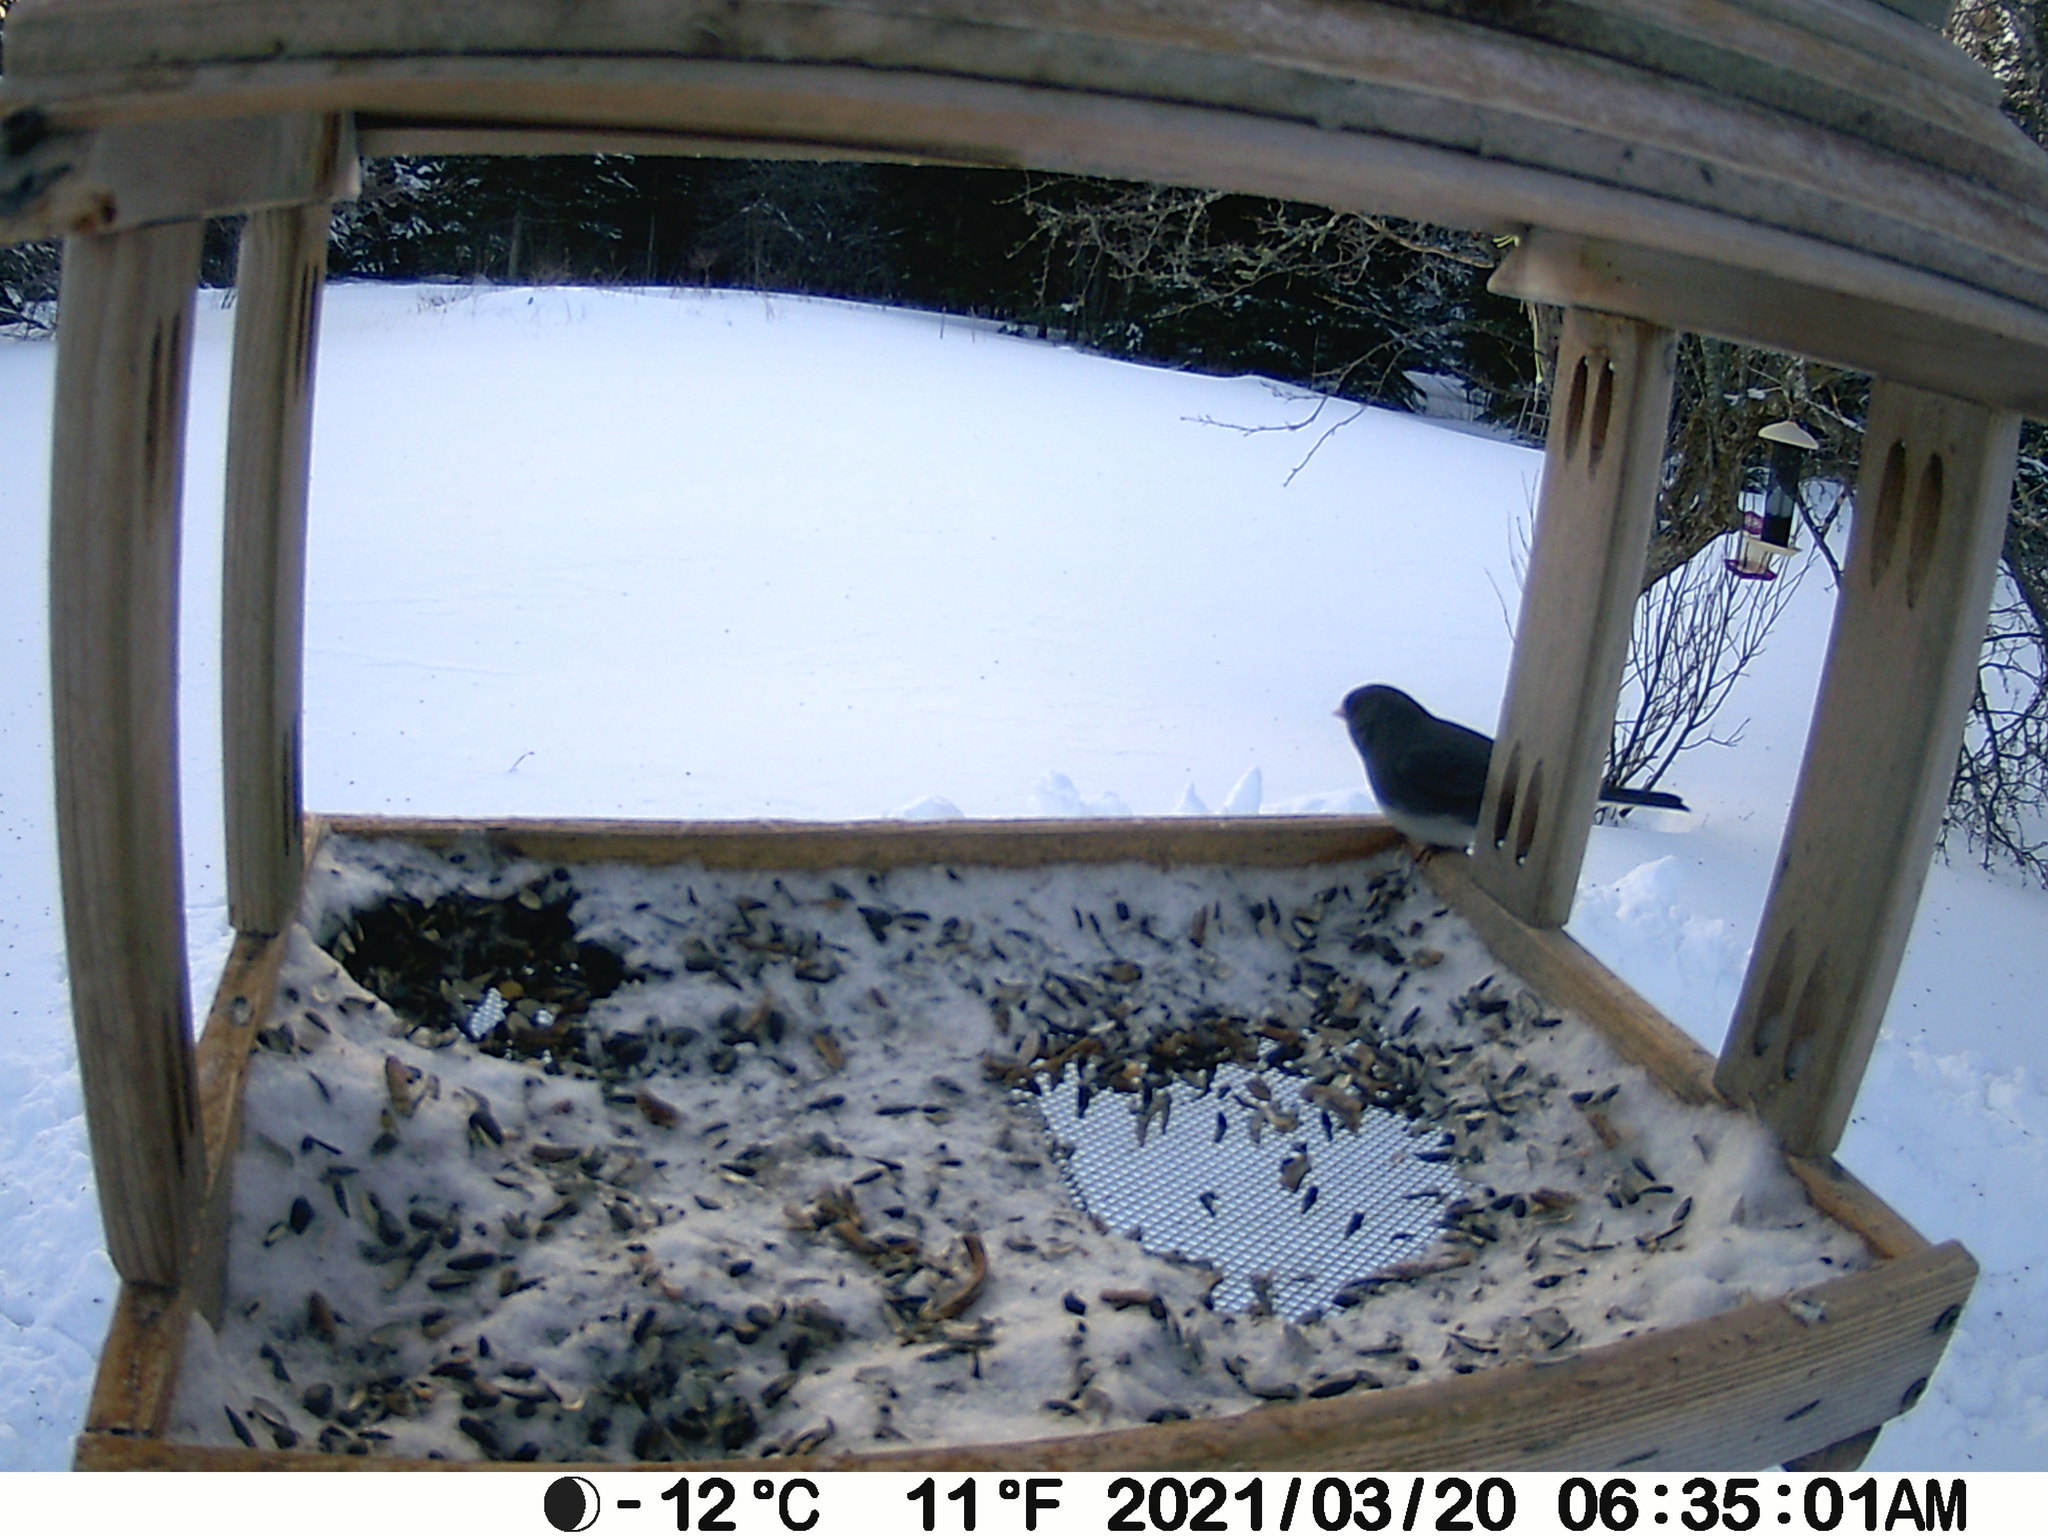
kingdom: Animalia
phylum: Chordata
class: Aves
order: Passeriformes
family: Passerellidae
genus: Junco
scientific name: Junco hyemalis
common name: Dark-eyed junco
